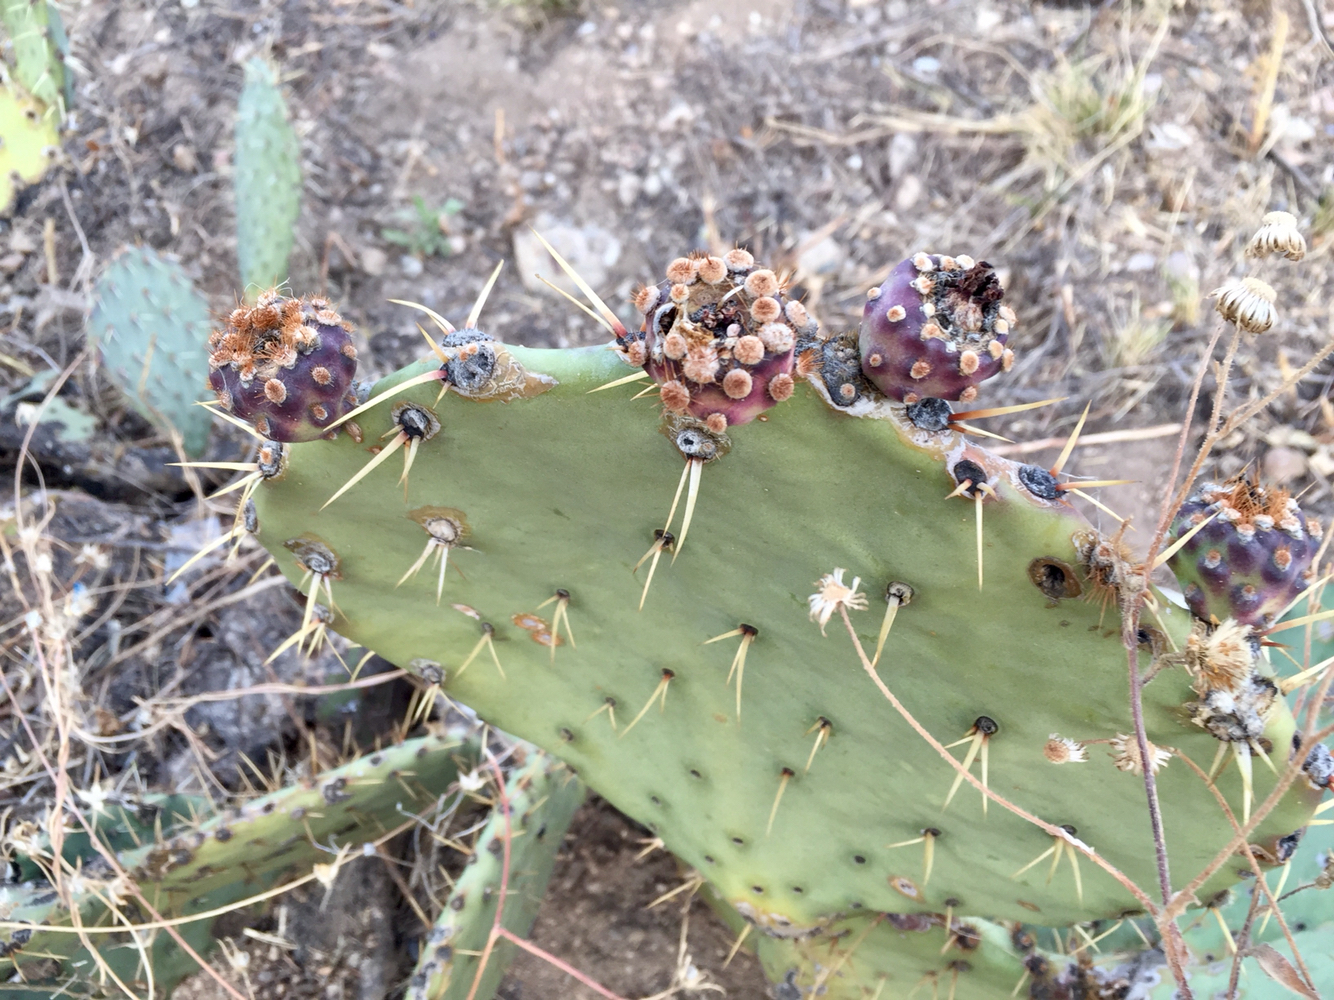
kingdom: Plantae
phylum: Tracheophyta
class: Magnoliopsida
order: Caryophyllales
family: Cactaceae
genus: Opuntia
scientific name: Opuntia engelmannii
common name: Cactus-apple
